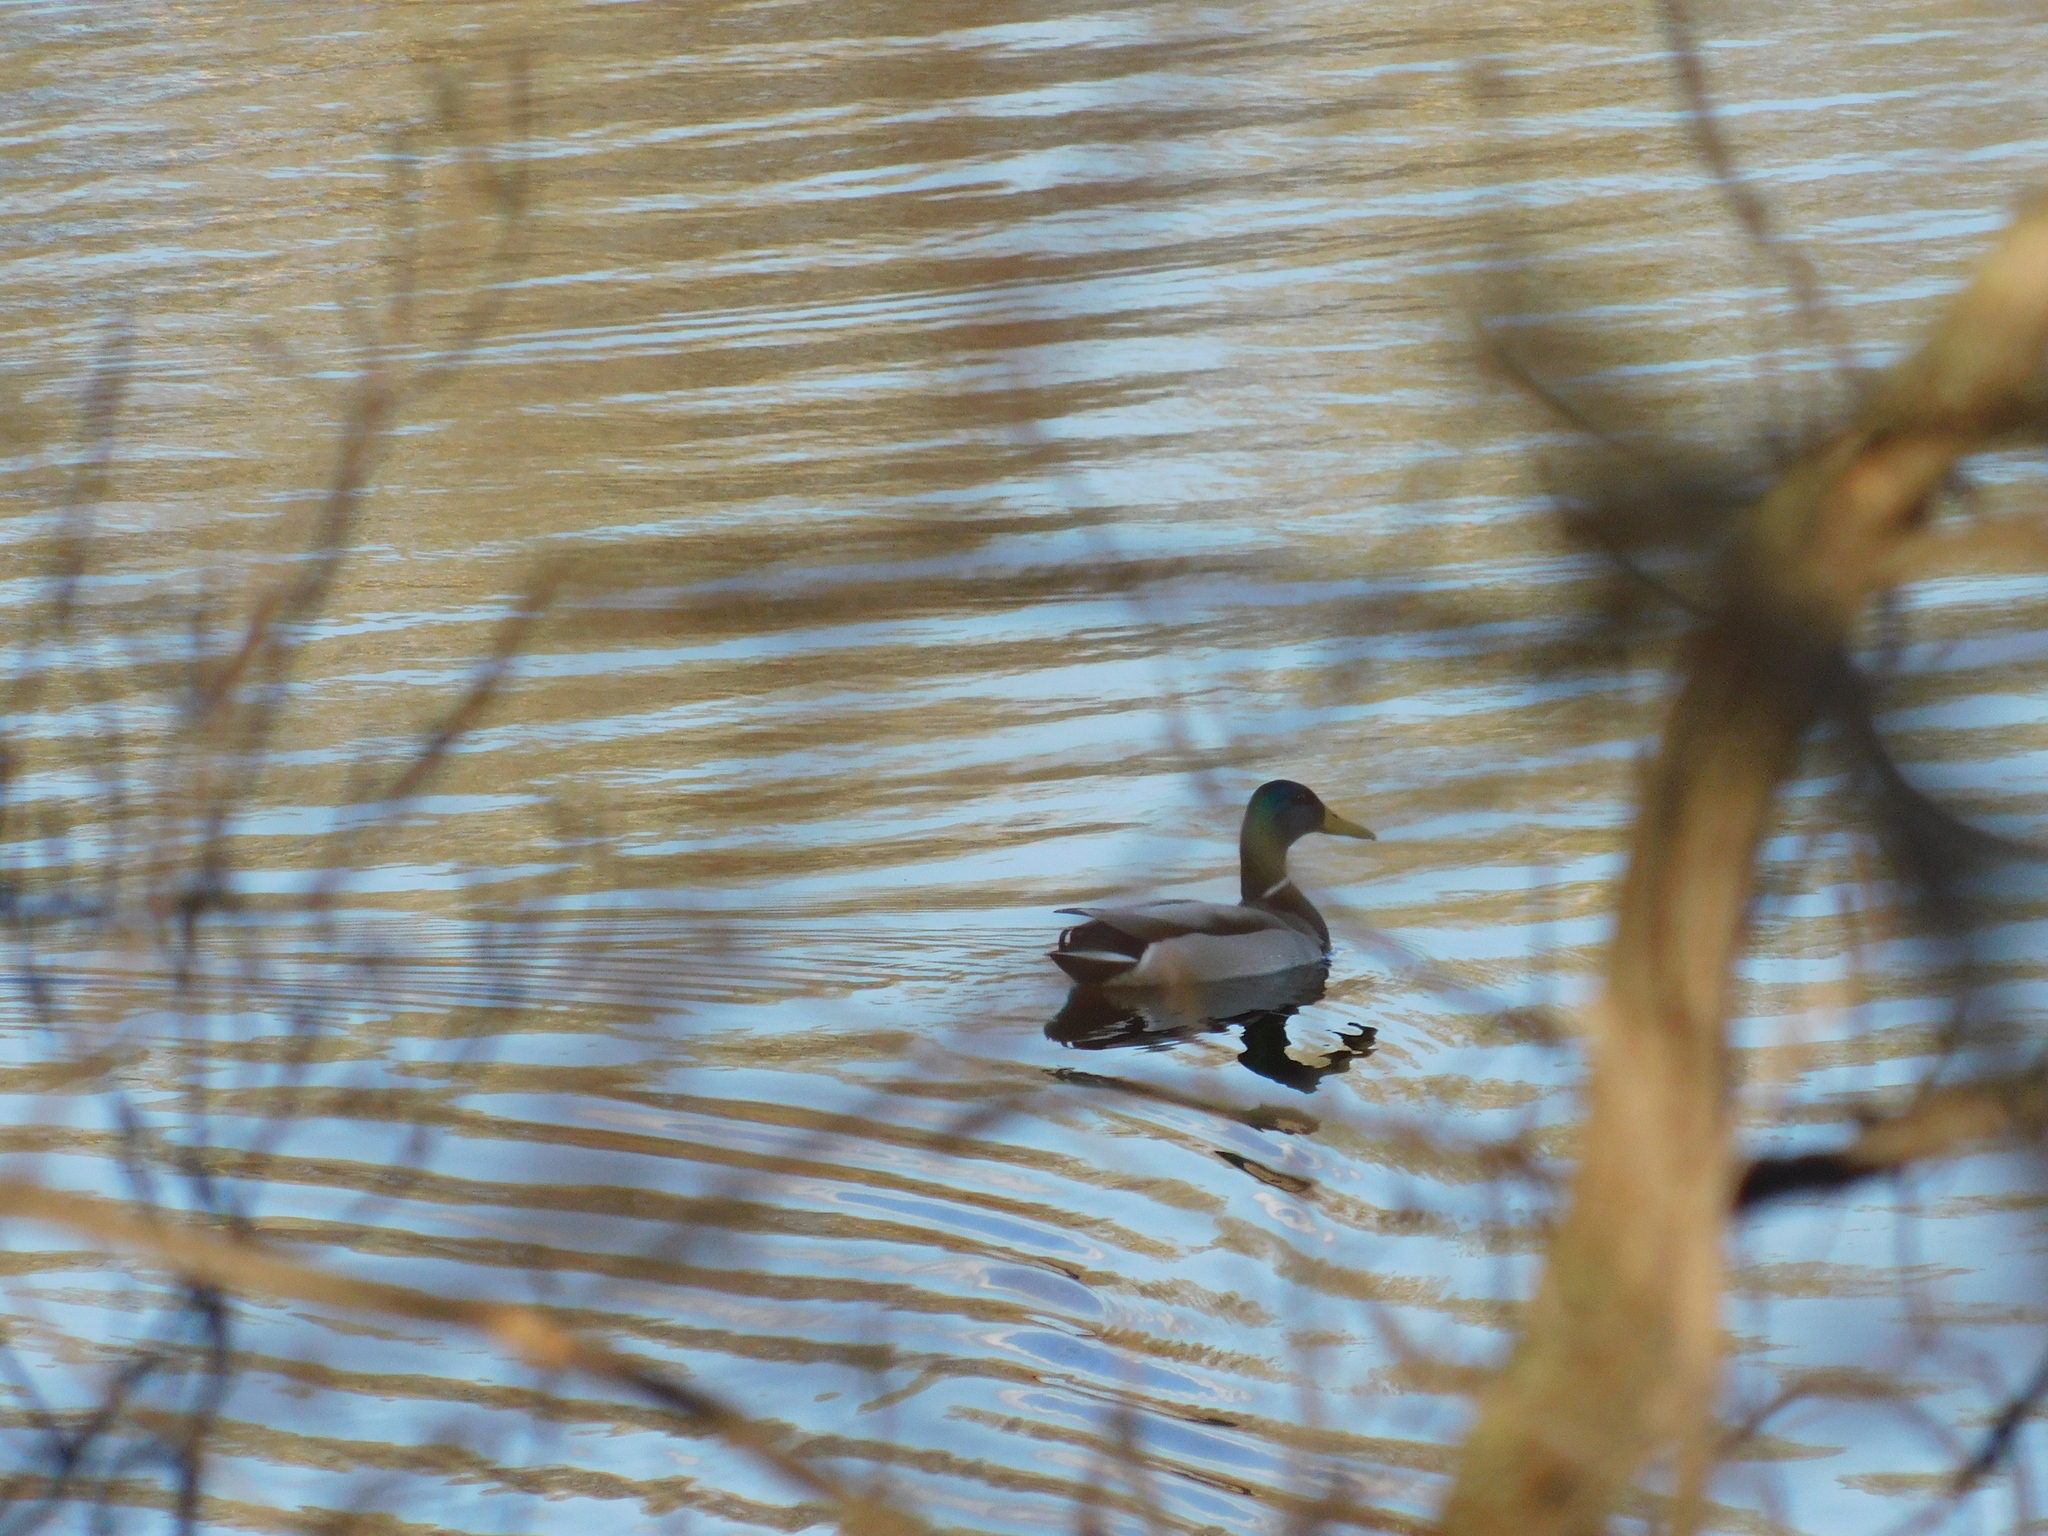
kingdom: Animalia
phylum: Chordata
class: Aves
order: Anseriformes
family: Anatidae
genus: Anas
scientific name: Anas platyrhynchos
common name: Mallard
